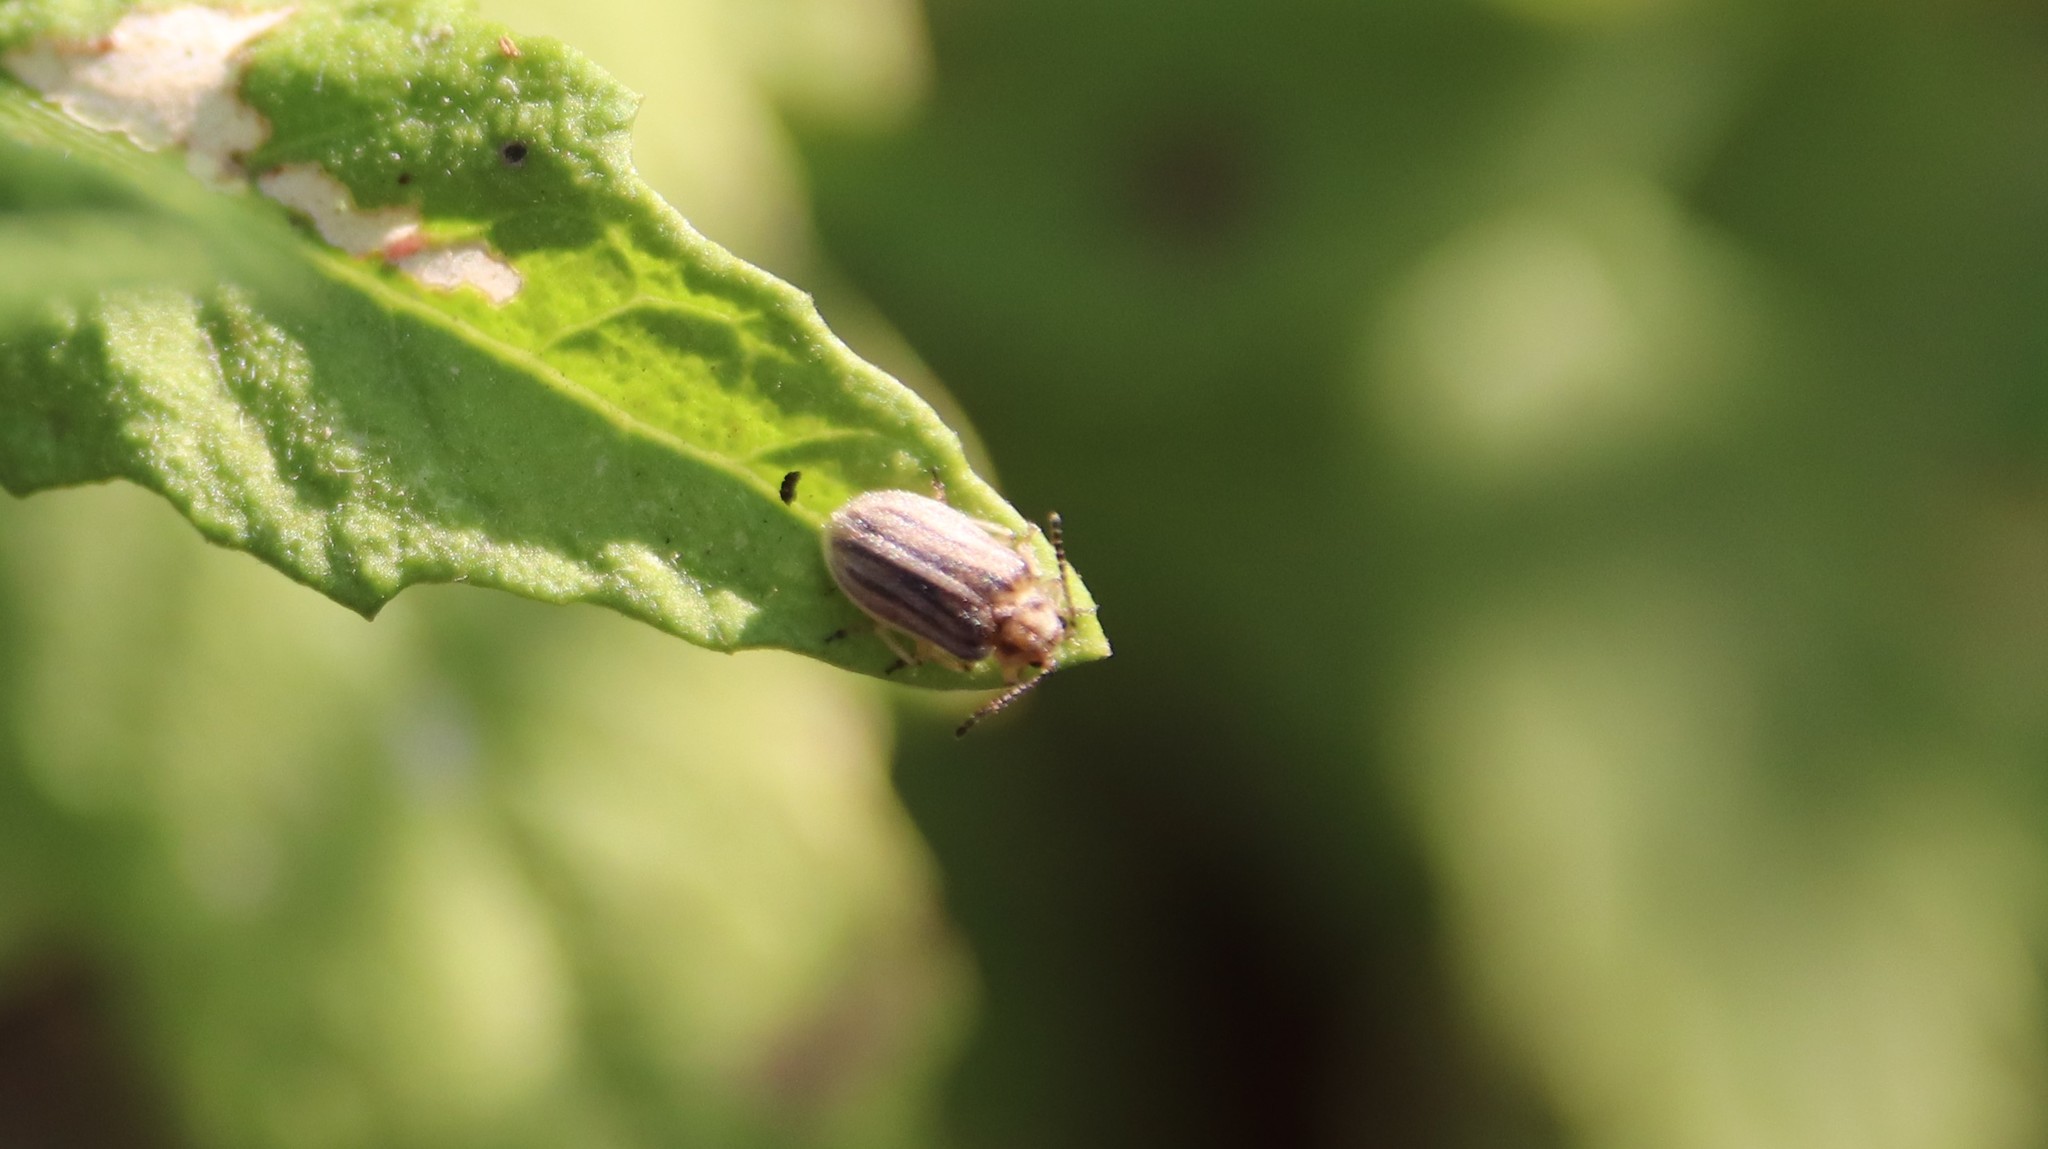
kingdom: Animalia
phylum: Arthropoda
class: Insecta
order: Coleoptera
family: Chrysomelidae
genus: Ophraella
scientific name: Ophraella communa
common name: Ragweed leaf beetle
